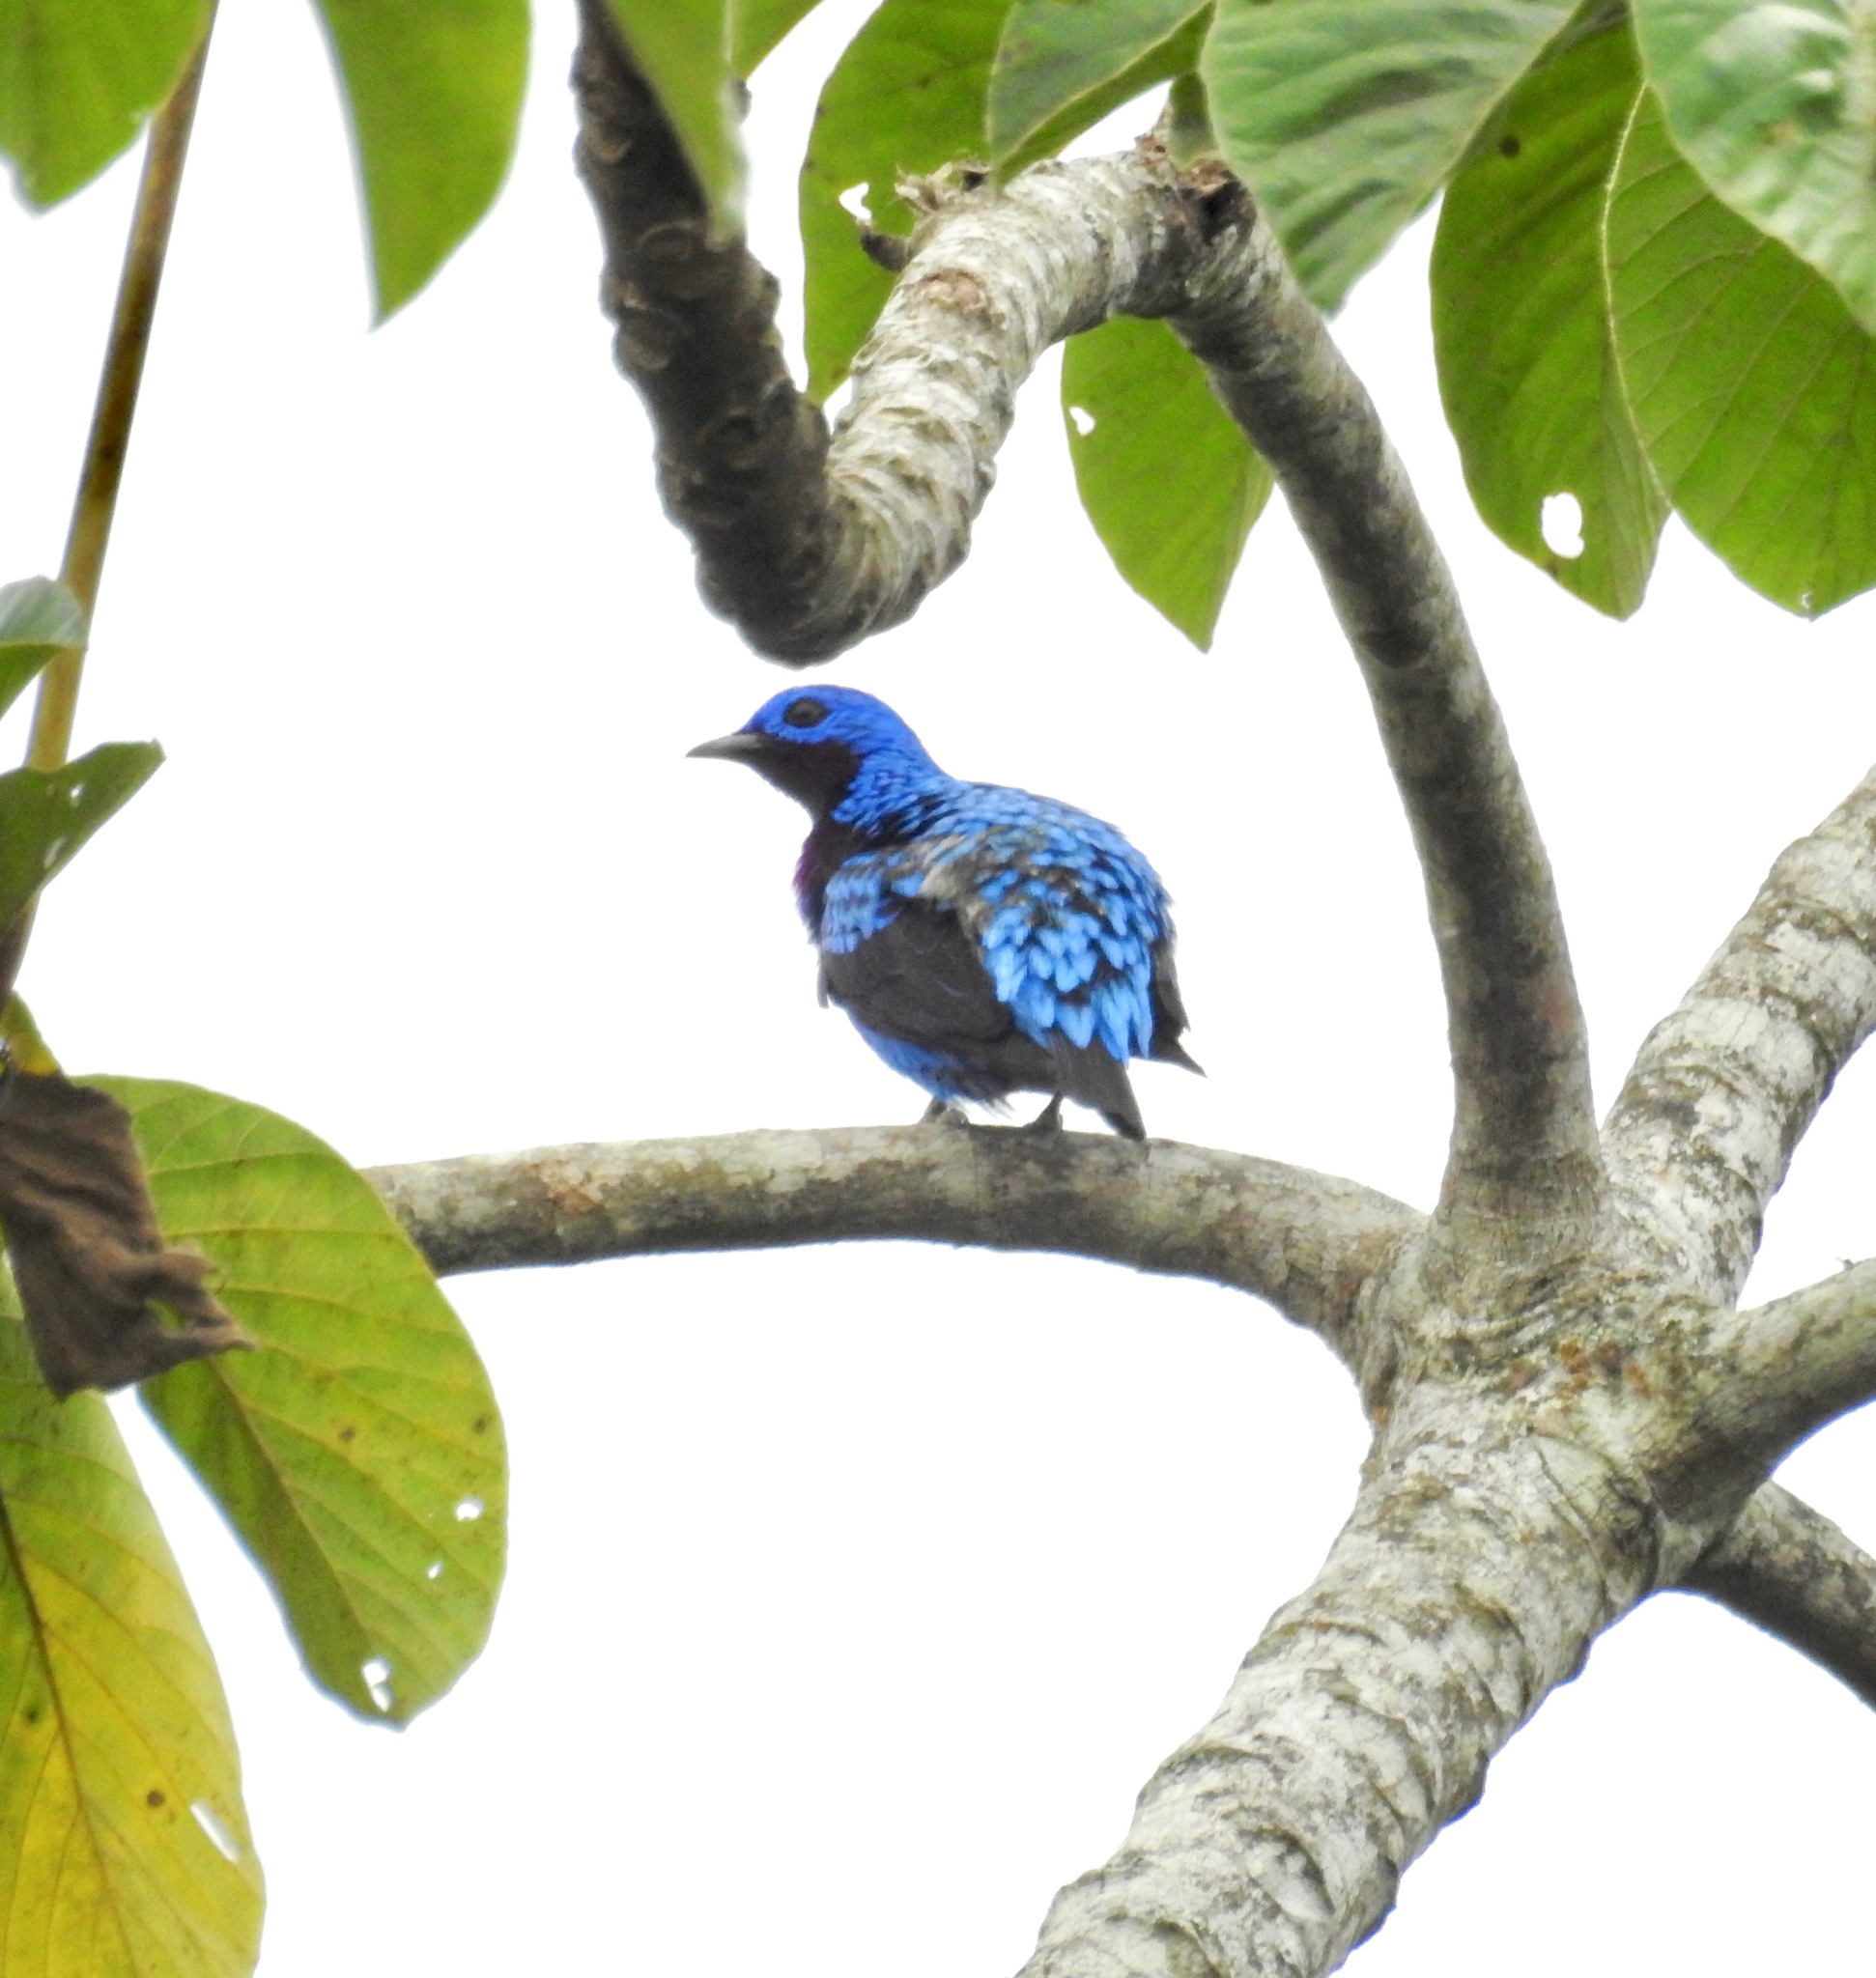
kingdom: Animalia
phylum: Chordata
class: Aves
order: Passeriformes
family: Cotingidae
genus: Cotinga
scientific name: Cotinga maculata
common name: Banded cotinga
